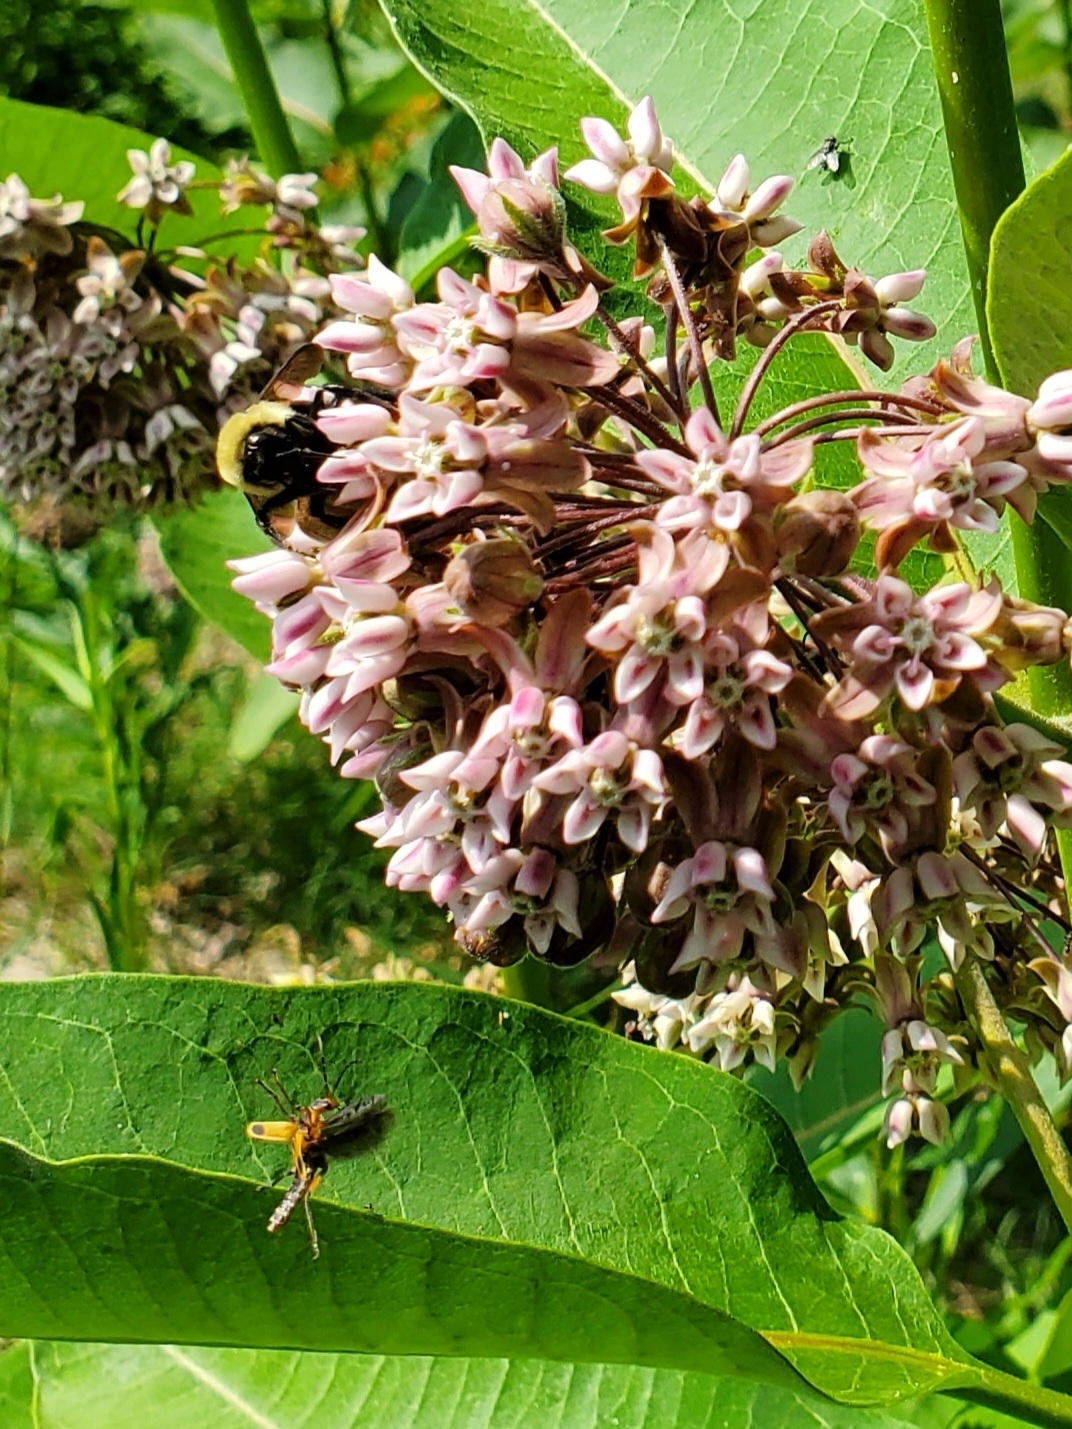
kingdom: Animalia
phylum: Arthropoda
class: Insecta
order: Coleoptera
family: Cantharidae
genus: Chauliognathus
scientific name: Chauliognathus marginatus
